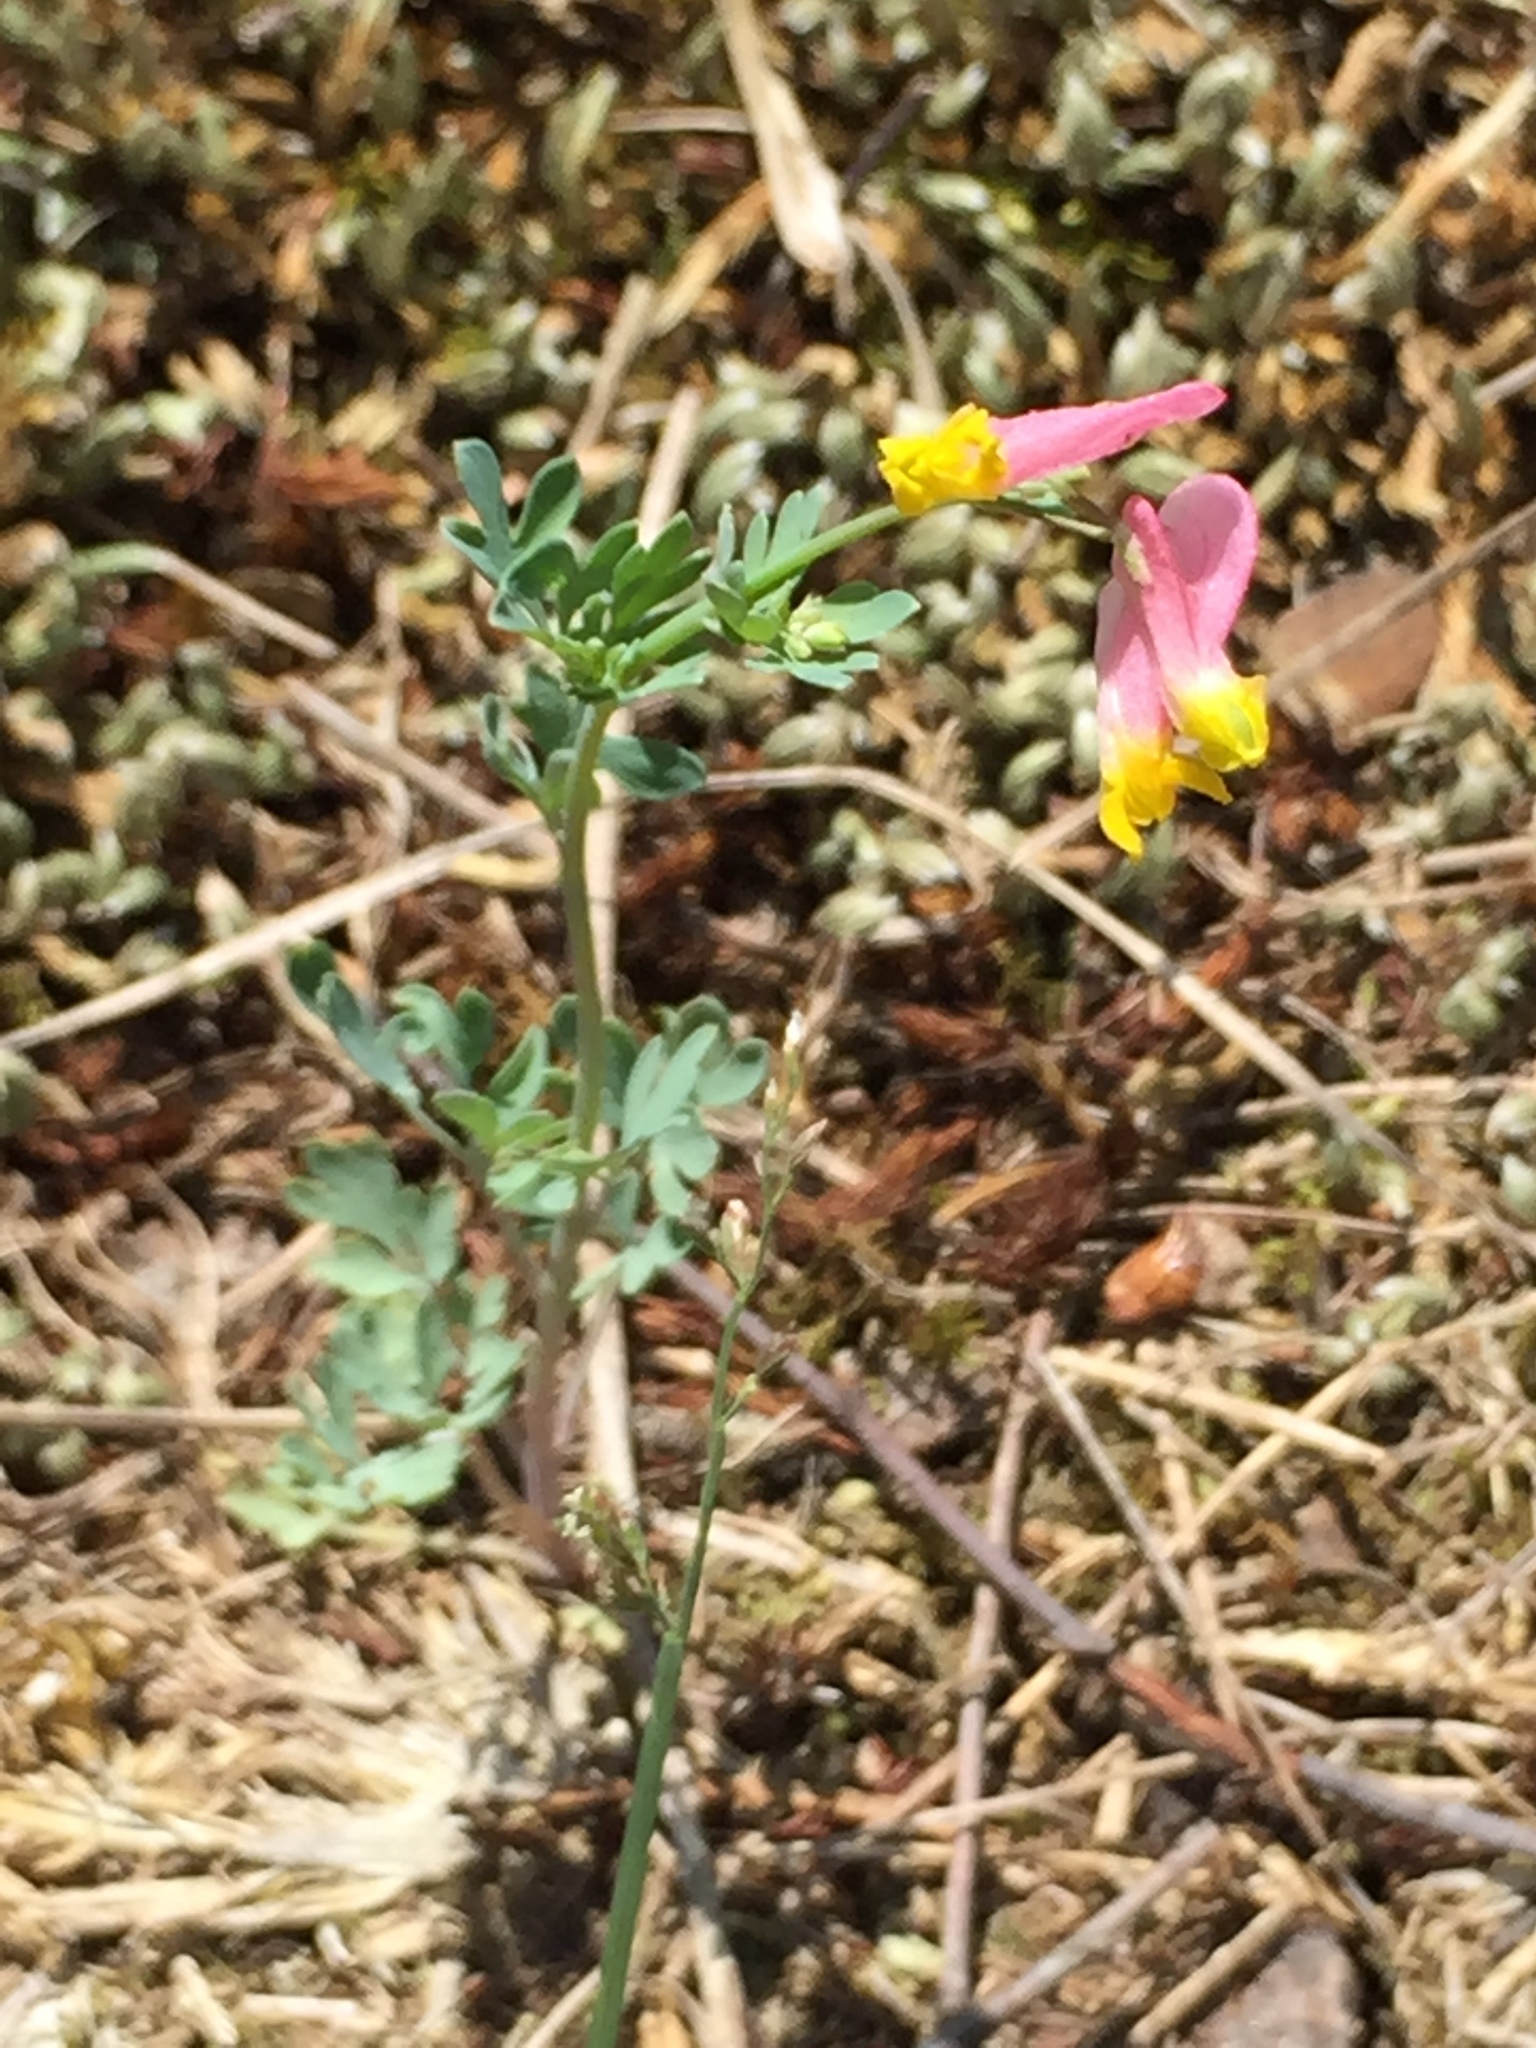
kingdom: Plantae
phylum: Tracheophyta
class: Magnoliopsida
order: Ranunculales
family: Papaveraceae
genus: Capnoides
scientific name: Capnoides sempervirens
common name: Rock harlequin
